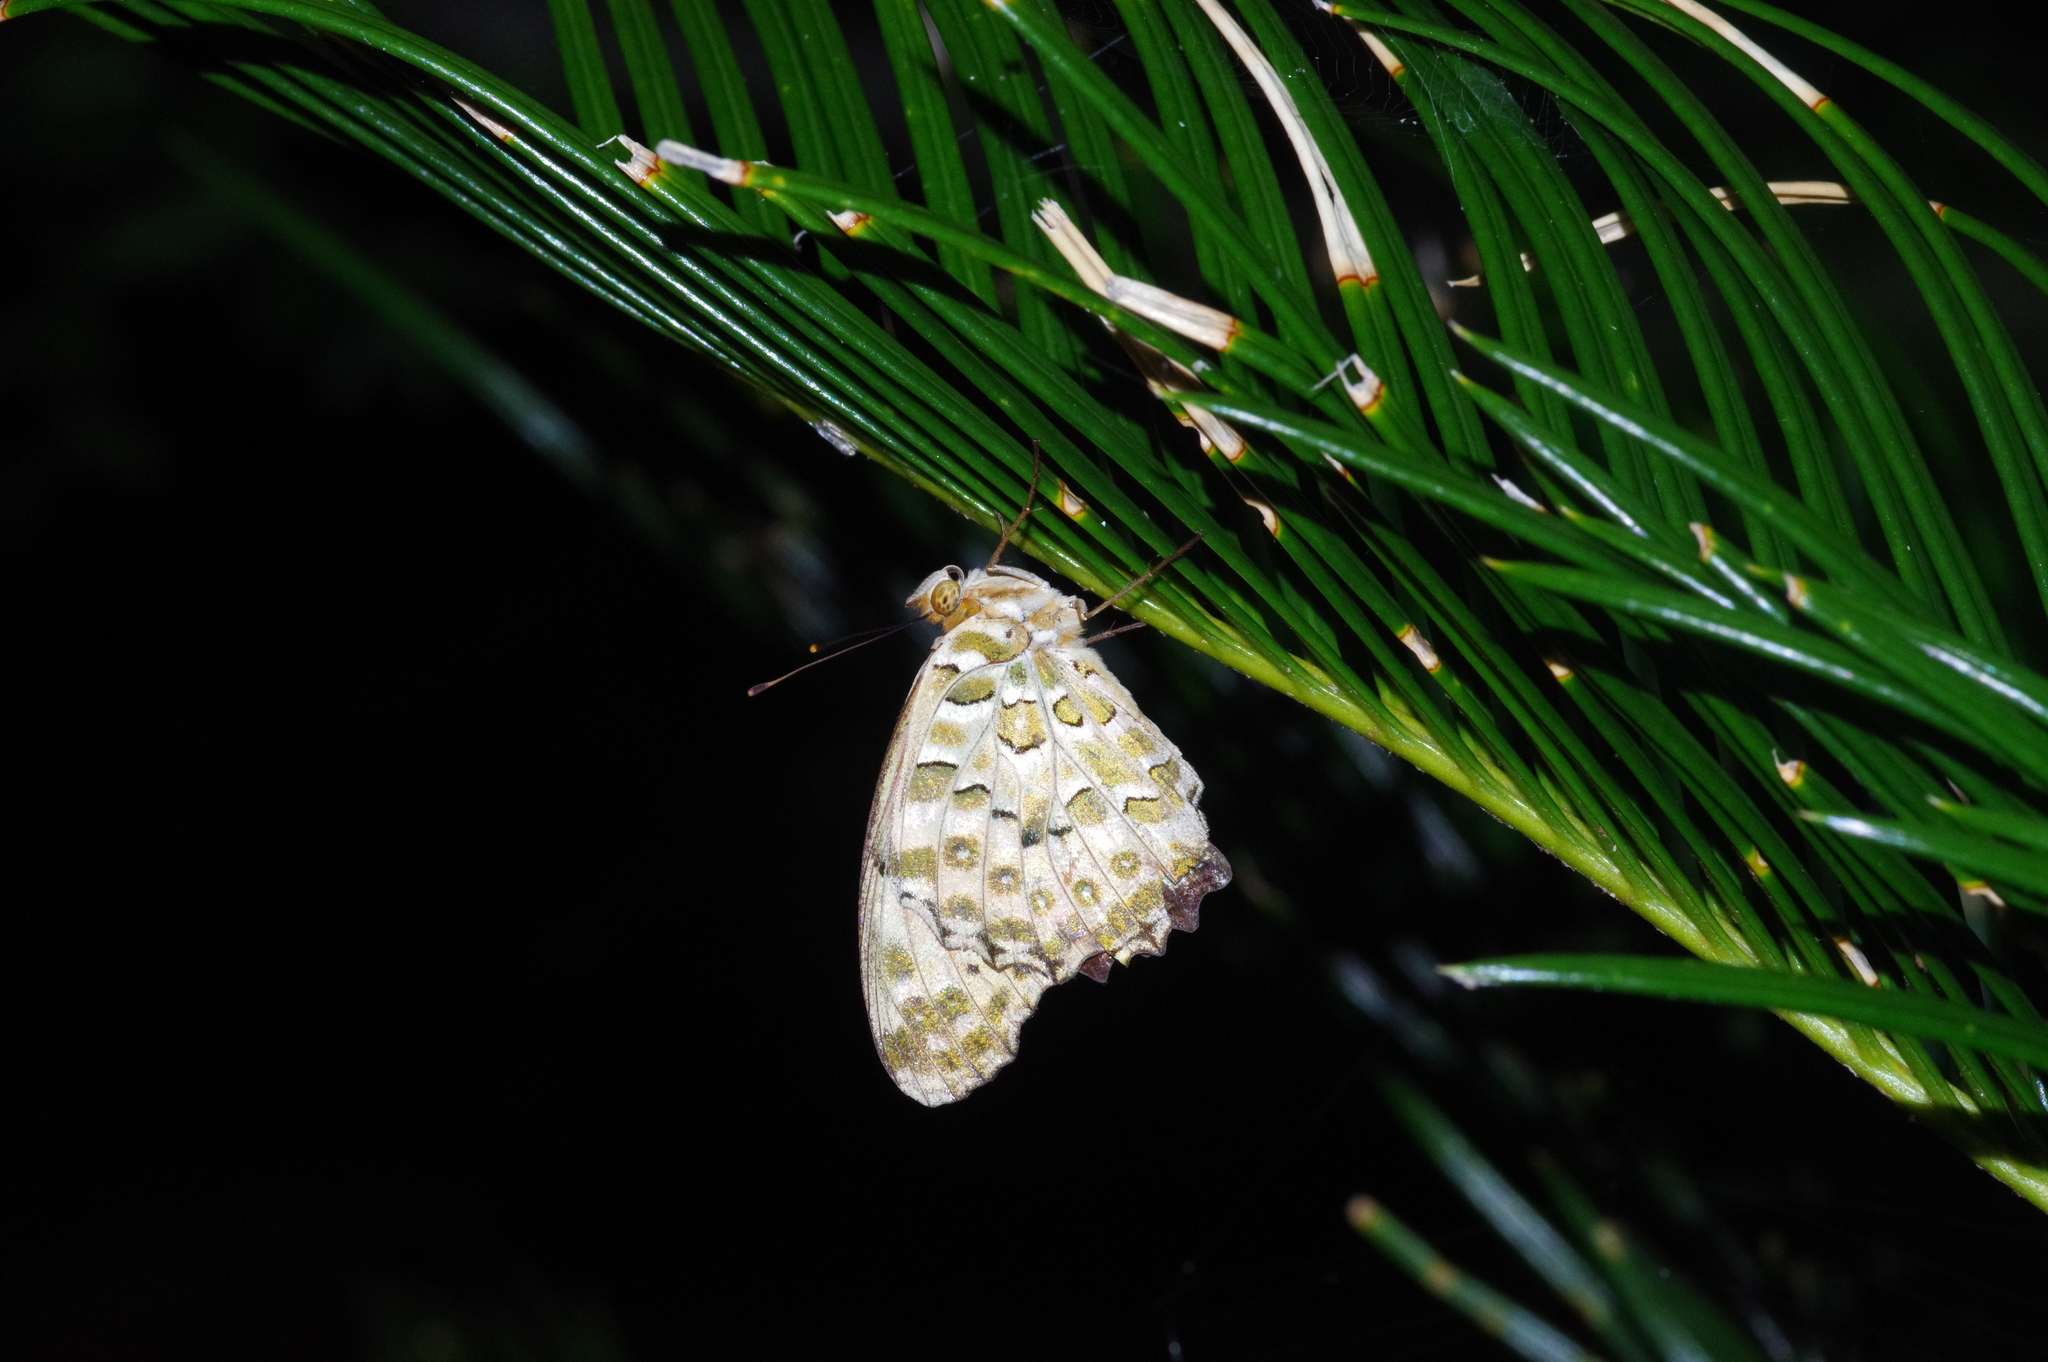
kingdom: Animalia
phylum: Arthropoda
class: Insecta
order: Lepidoptera
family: Nymphalidae
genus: Argynnis
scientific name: Argynnis hyperbius
